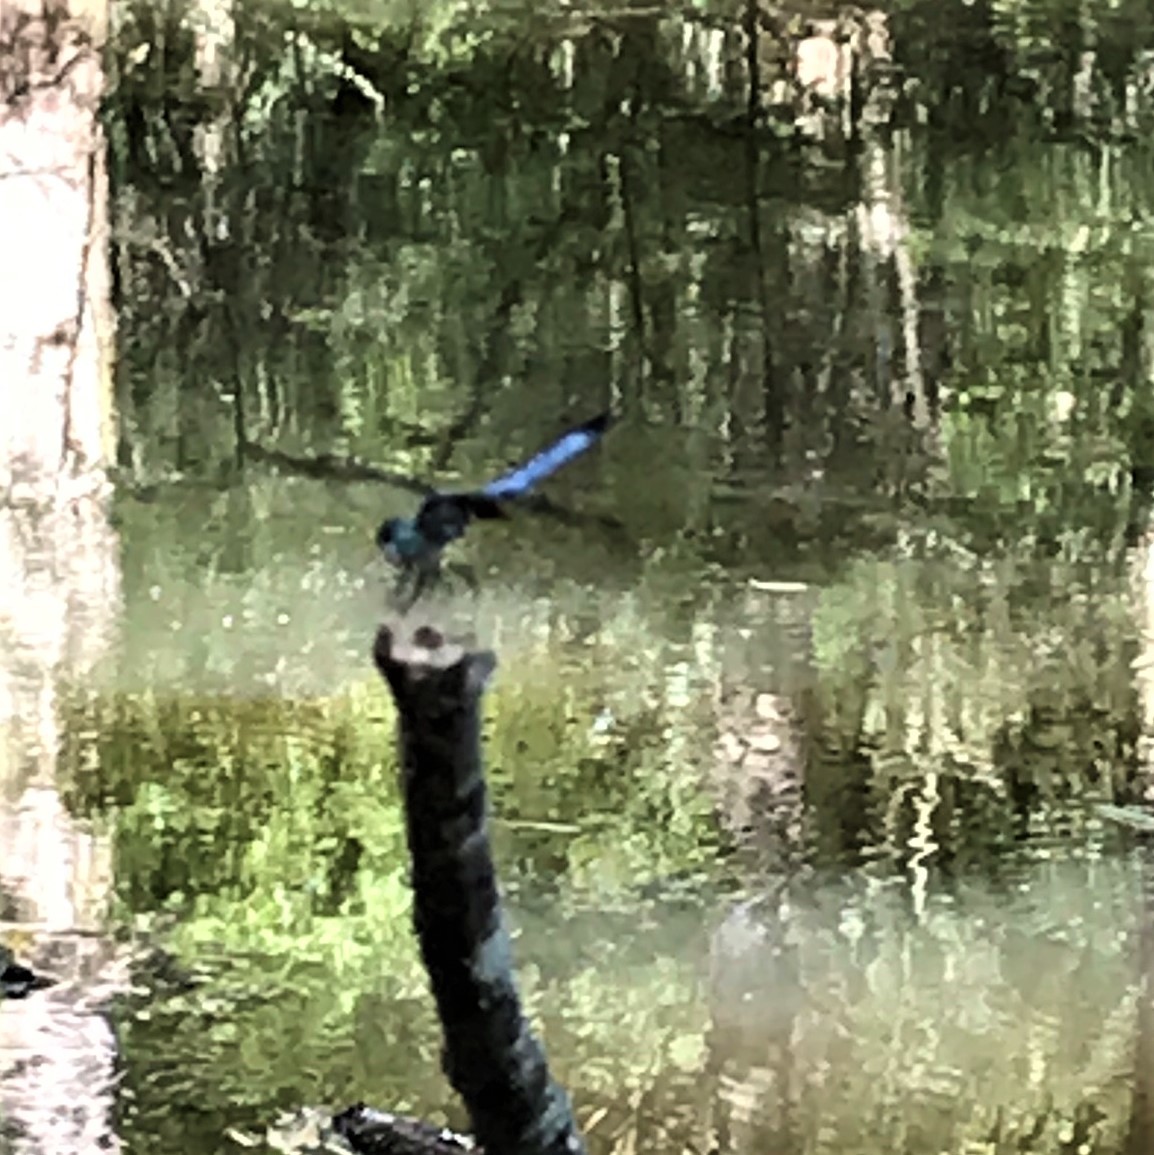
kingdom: Animalia
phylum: Arthropoda
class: Insecta
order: Odonata
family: Libellulidae
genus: Pachydiplax
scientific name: Pachydiplax longipennis
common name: Blue dasher
